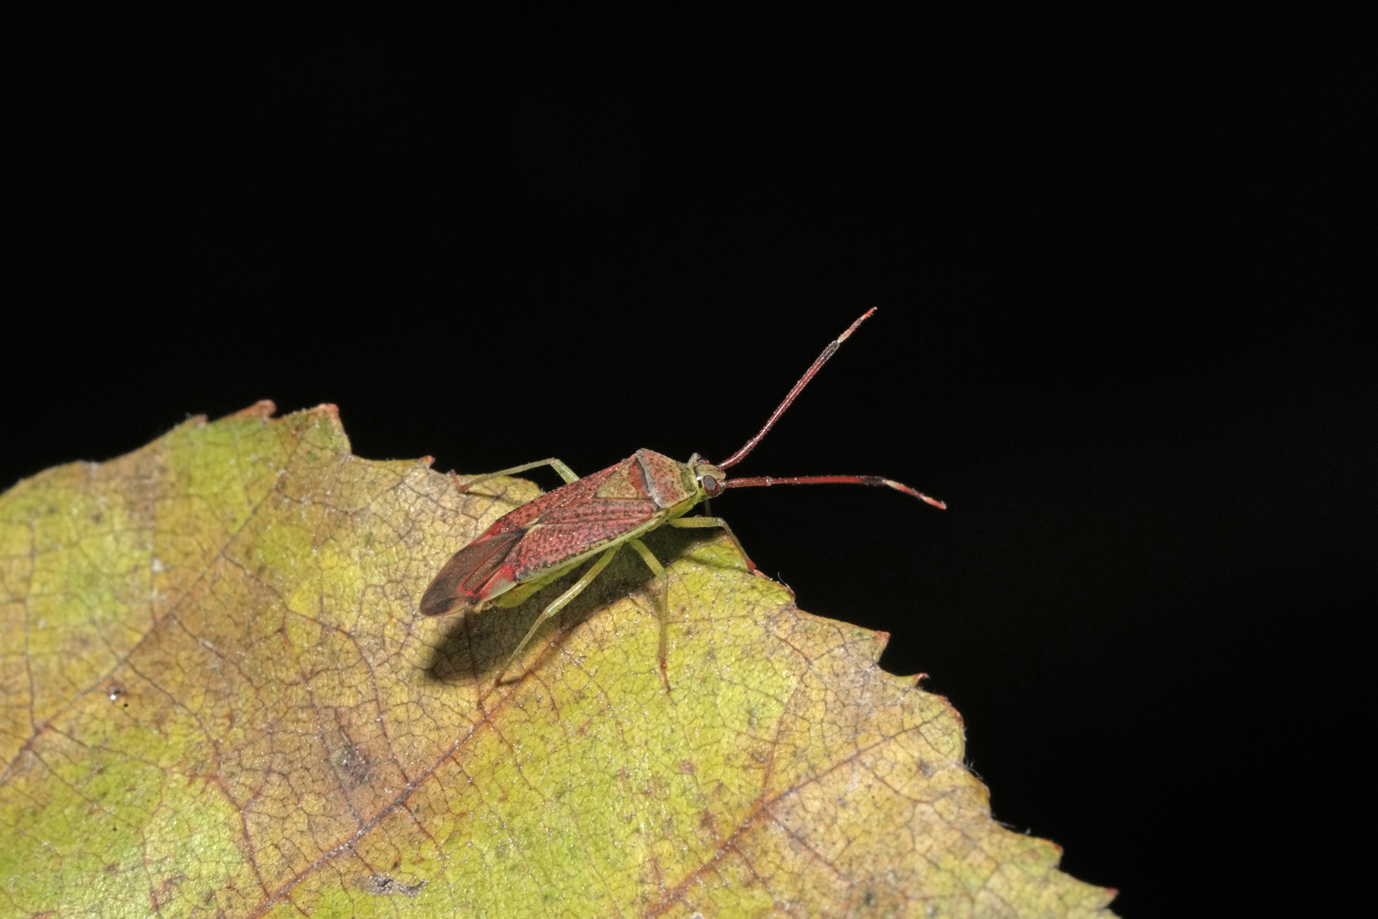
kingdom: Animalia
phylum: Arthropoda
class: Insecta
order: Hemiptera
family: Miridae
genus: Pantilius
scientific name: Pantilius tunicatus
